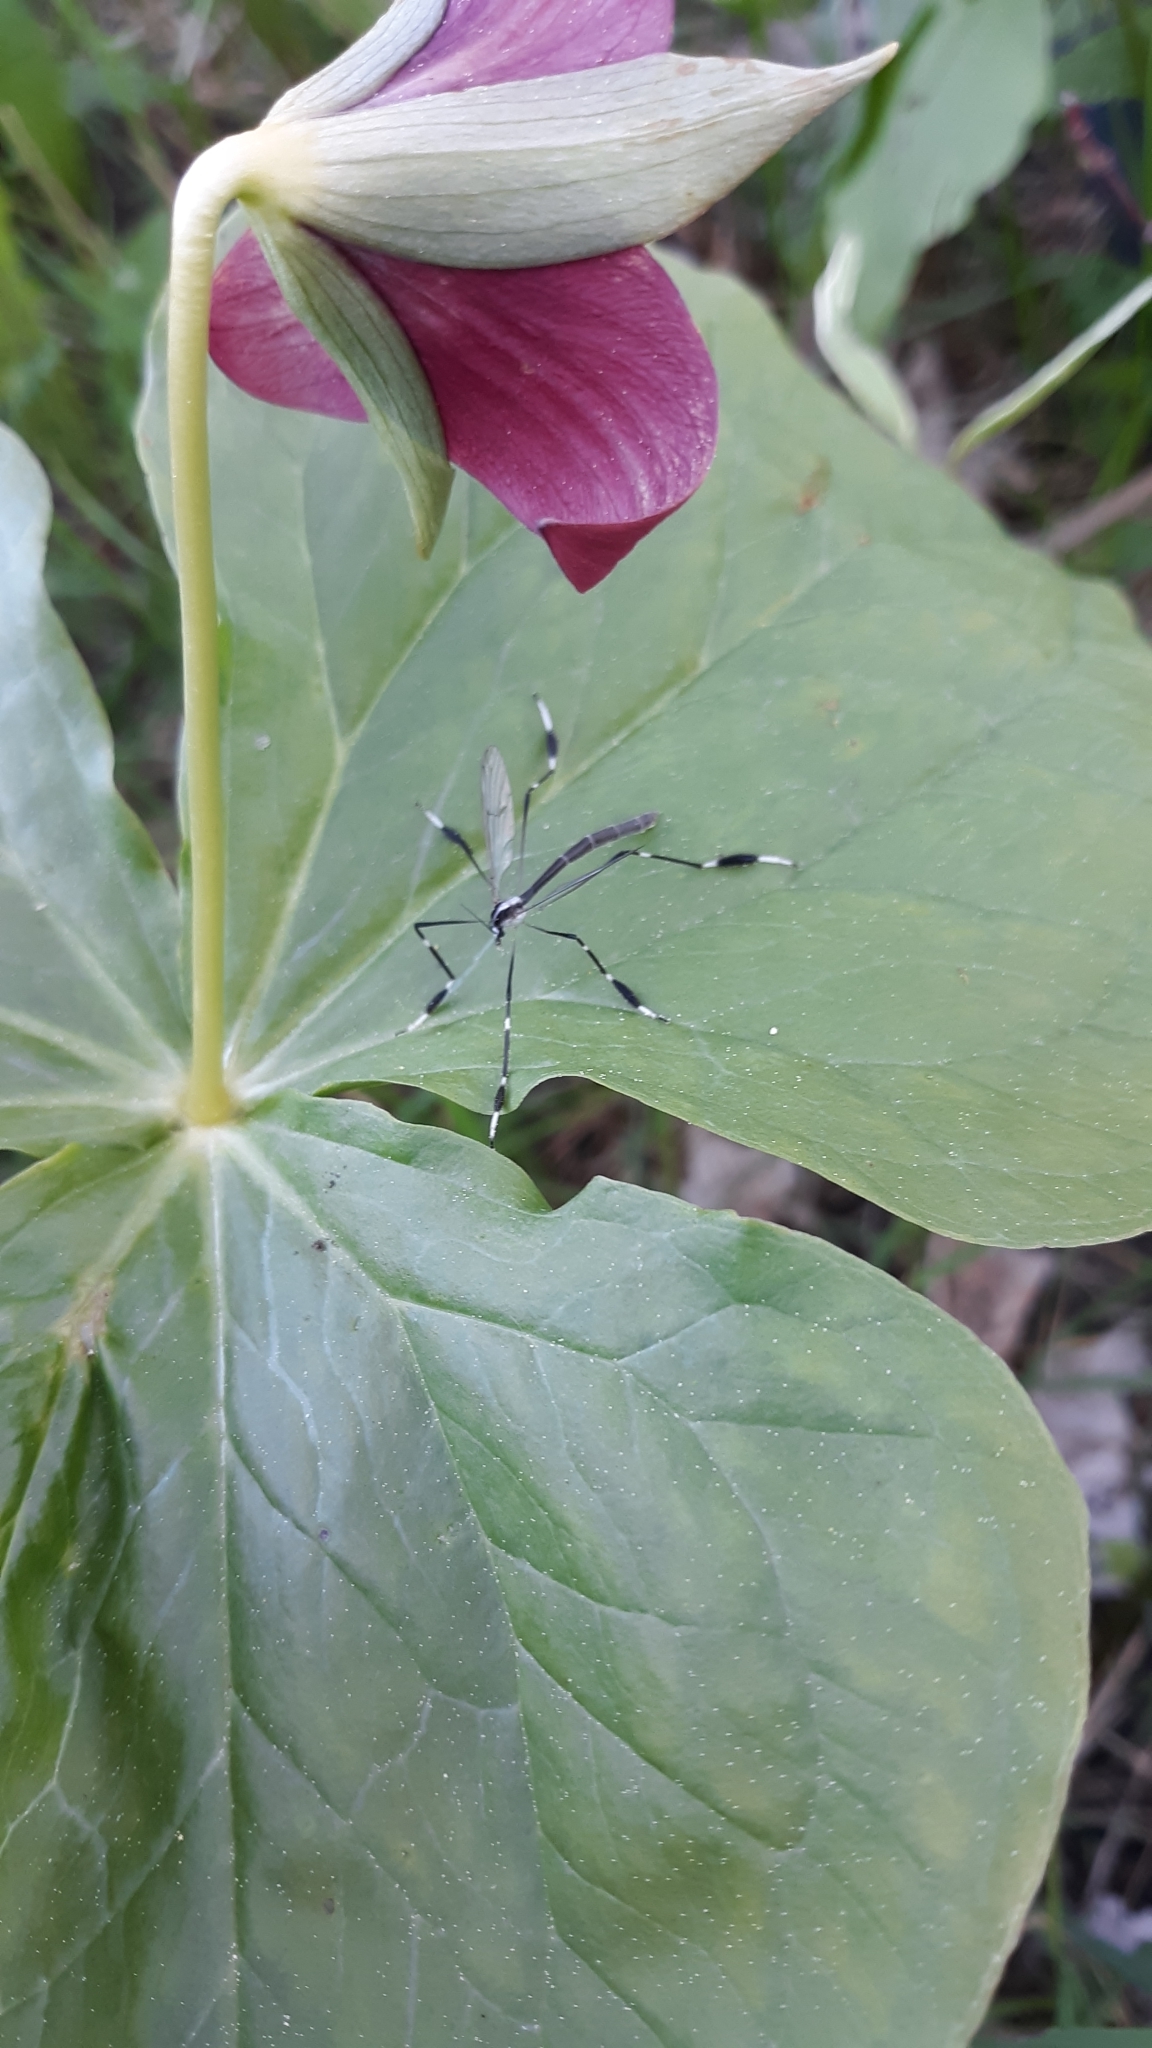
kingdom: Animalia
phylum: Arthropoda
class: Insecta
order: Diptera
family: Ptychopteridae
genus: Bittacomorpha
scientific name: Bittacomorpha clavipes
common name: Eastern phantom crane fly
